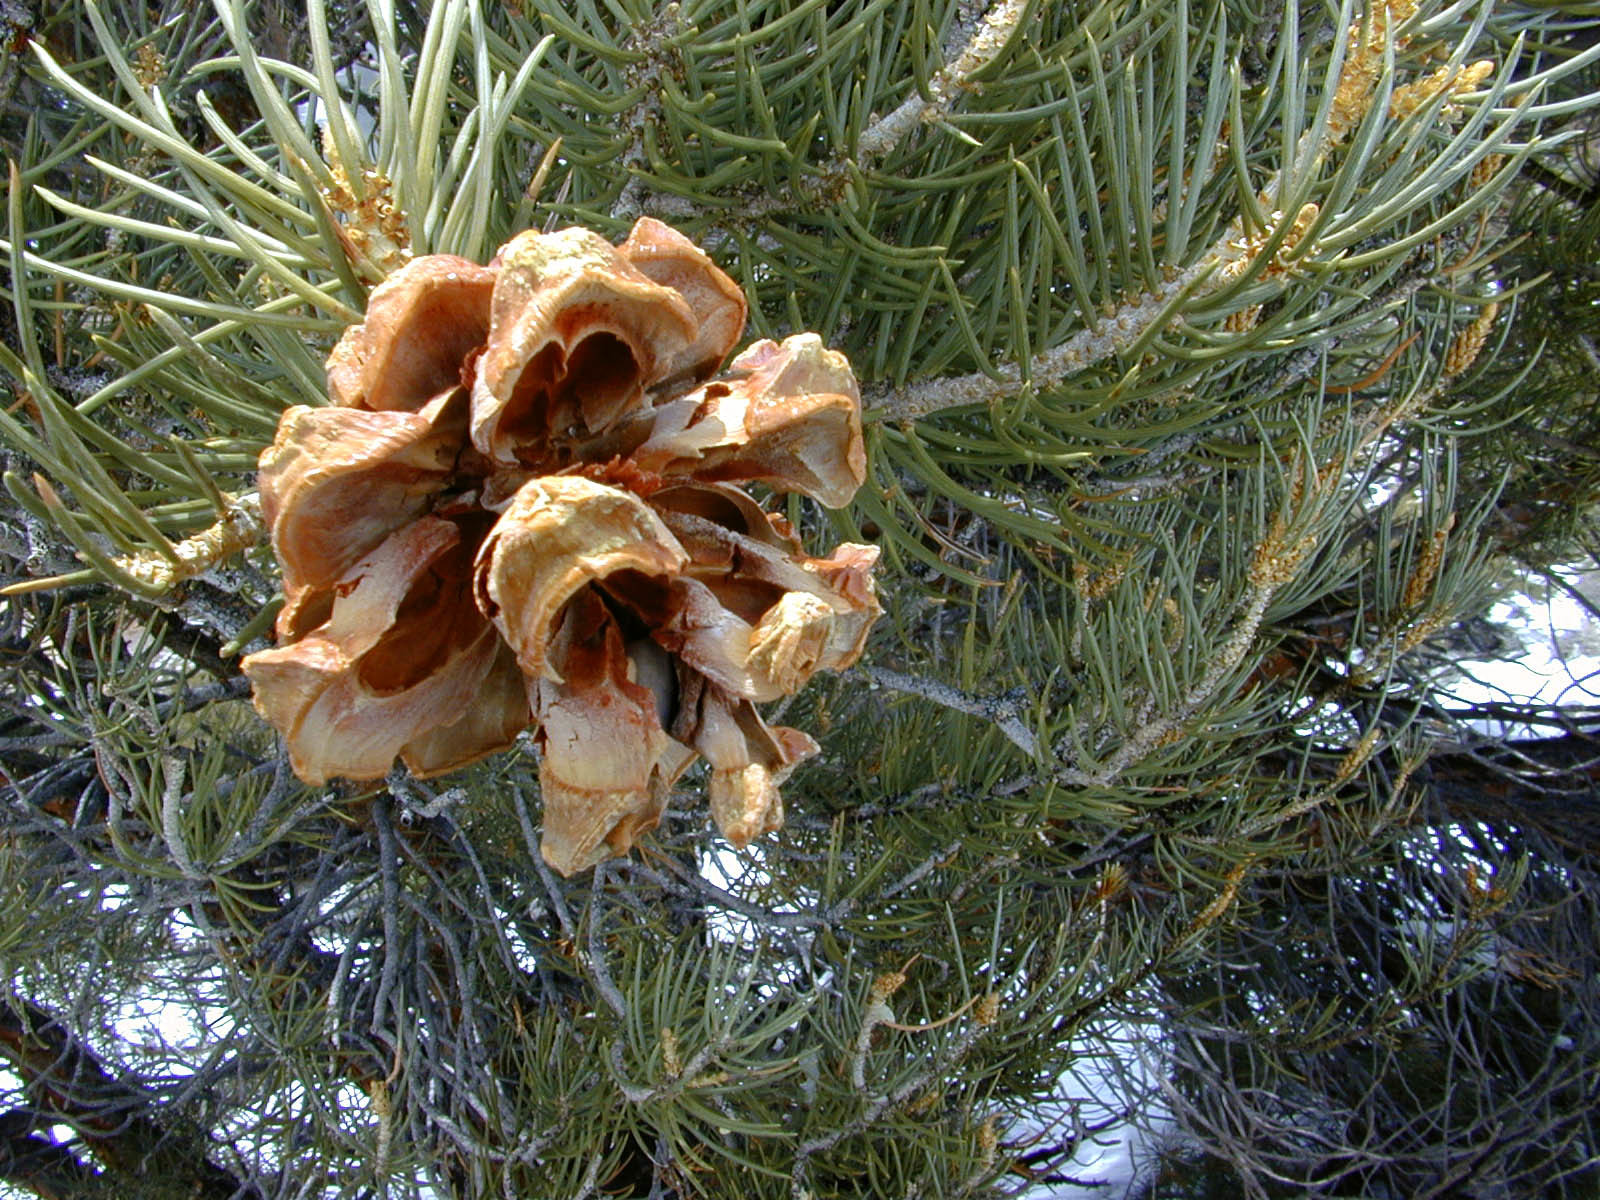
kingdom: Plantae
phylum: Tracheophyta
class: Pinopsida
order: Pinales
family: Pinaceae
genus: Pinus
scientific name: Pinus monophylla
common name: One-leaved nut pine
